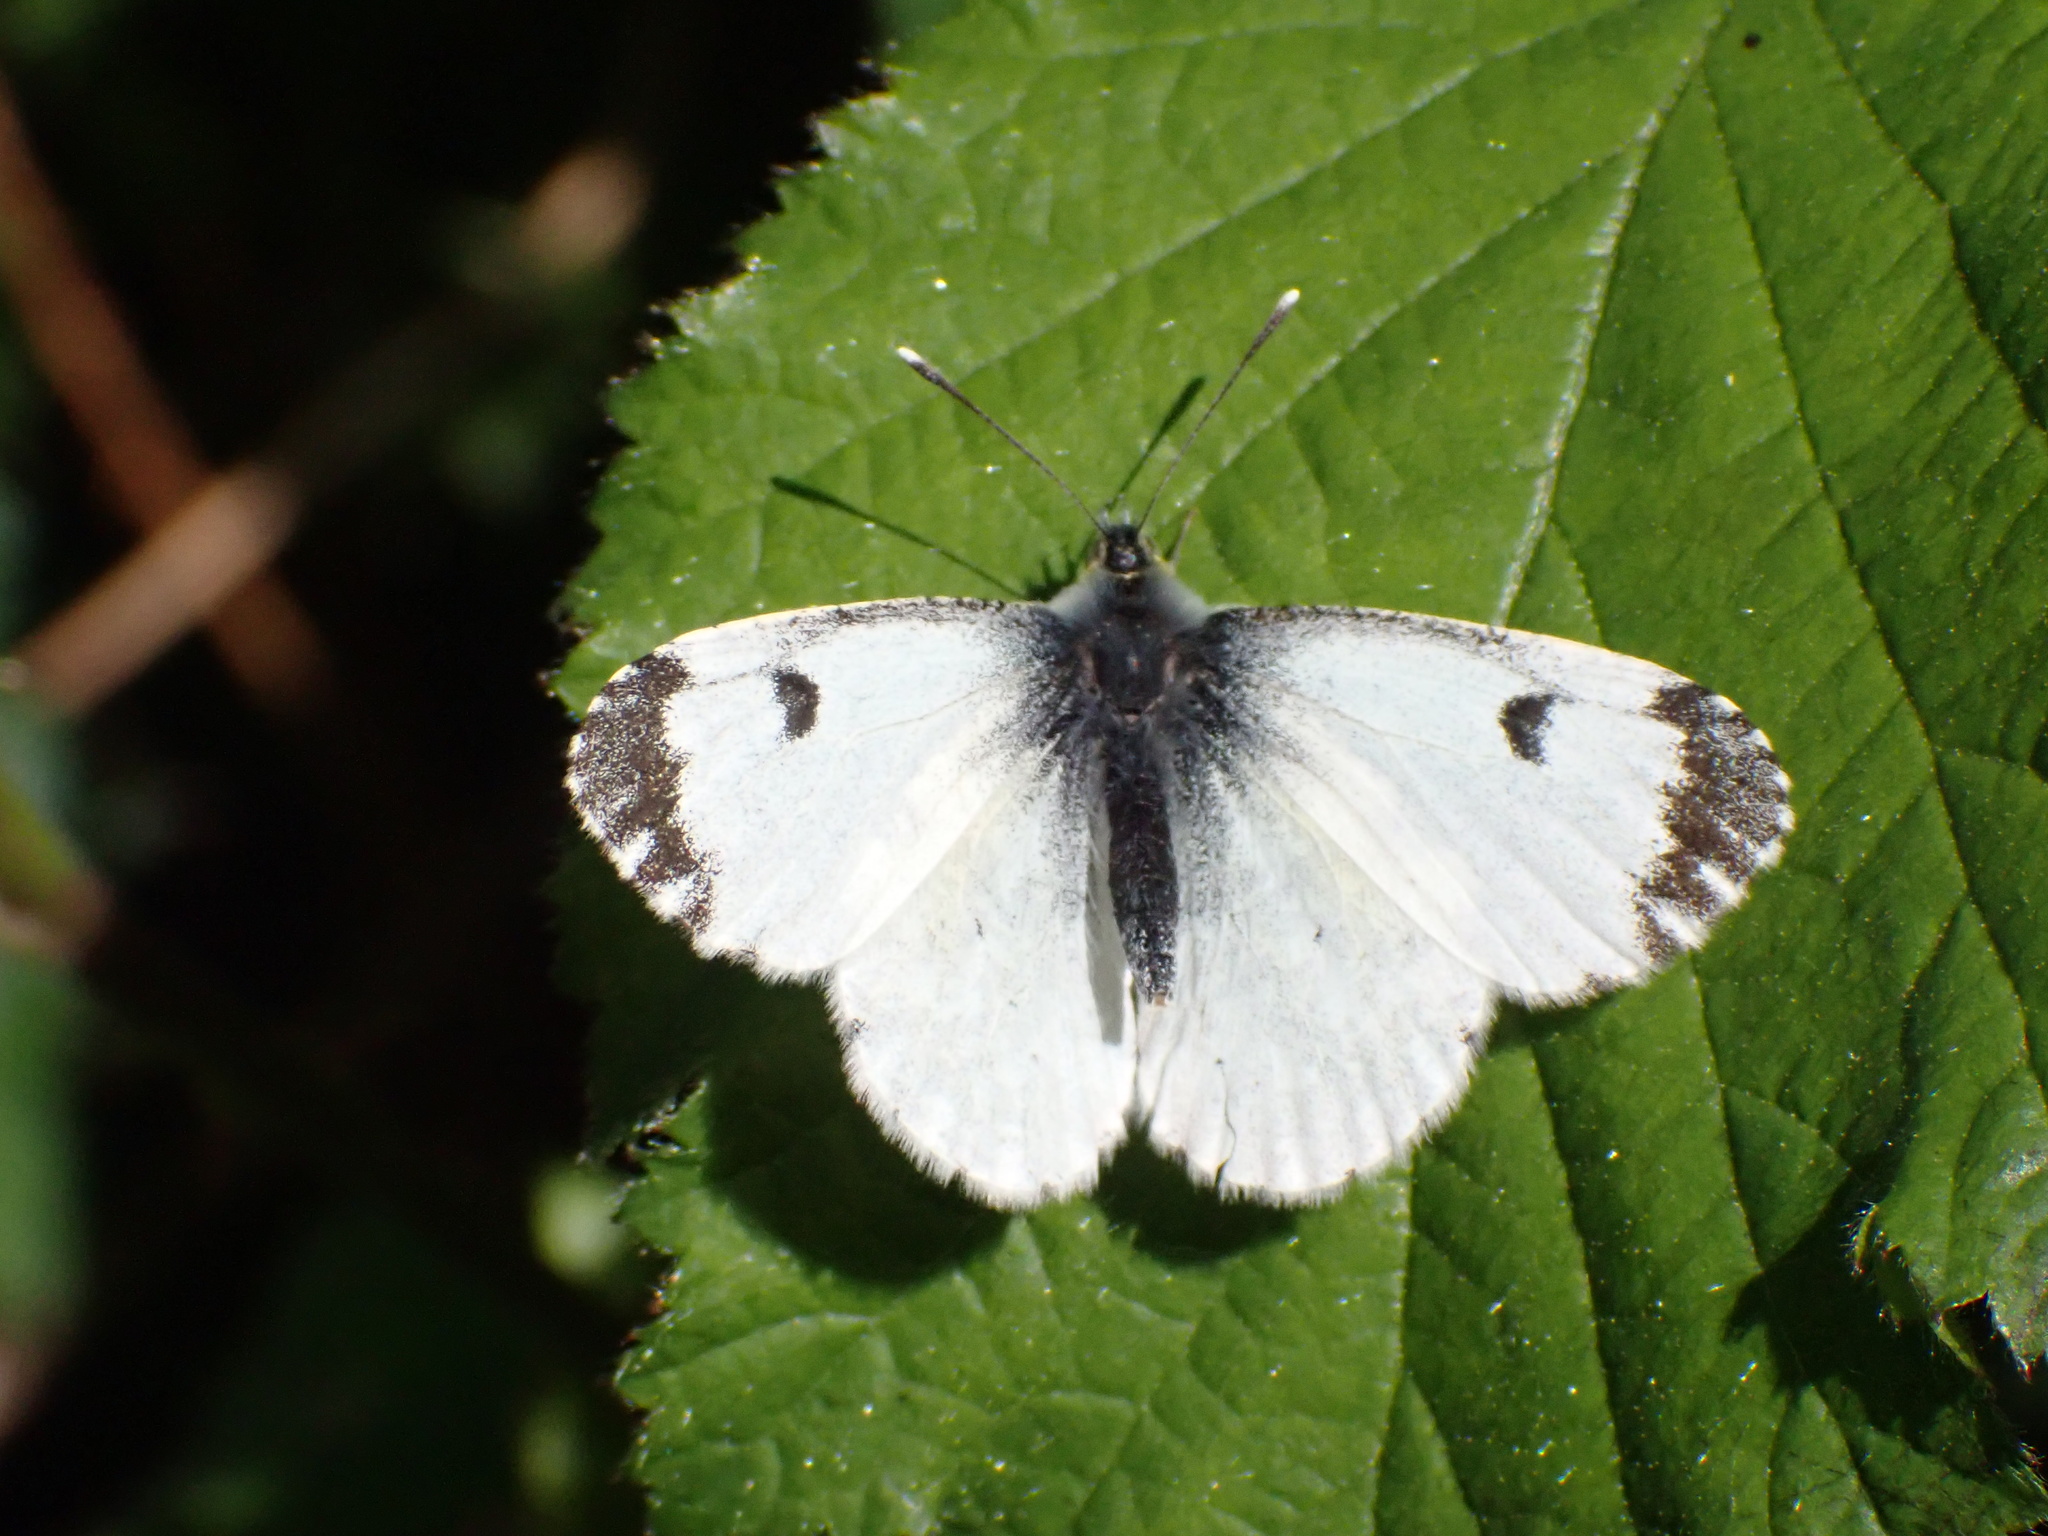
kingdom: Animalia
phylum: Arthropoda
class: Insecta
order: Lepidoptera
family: Pieridae
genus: Anthocharis
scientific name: Anthocharis cardamines
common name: Orange-tip
